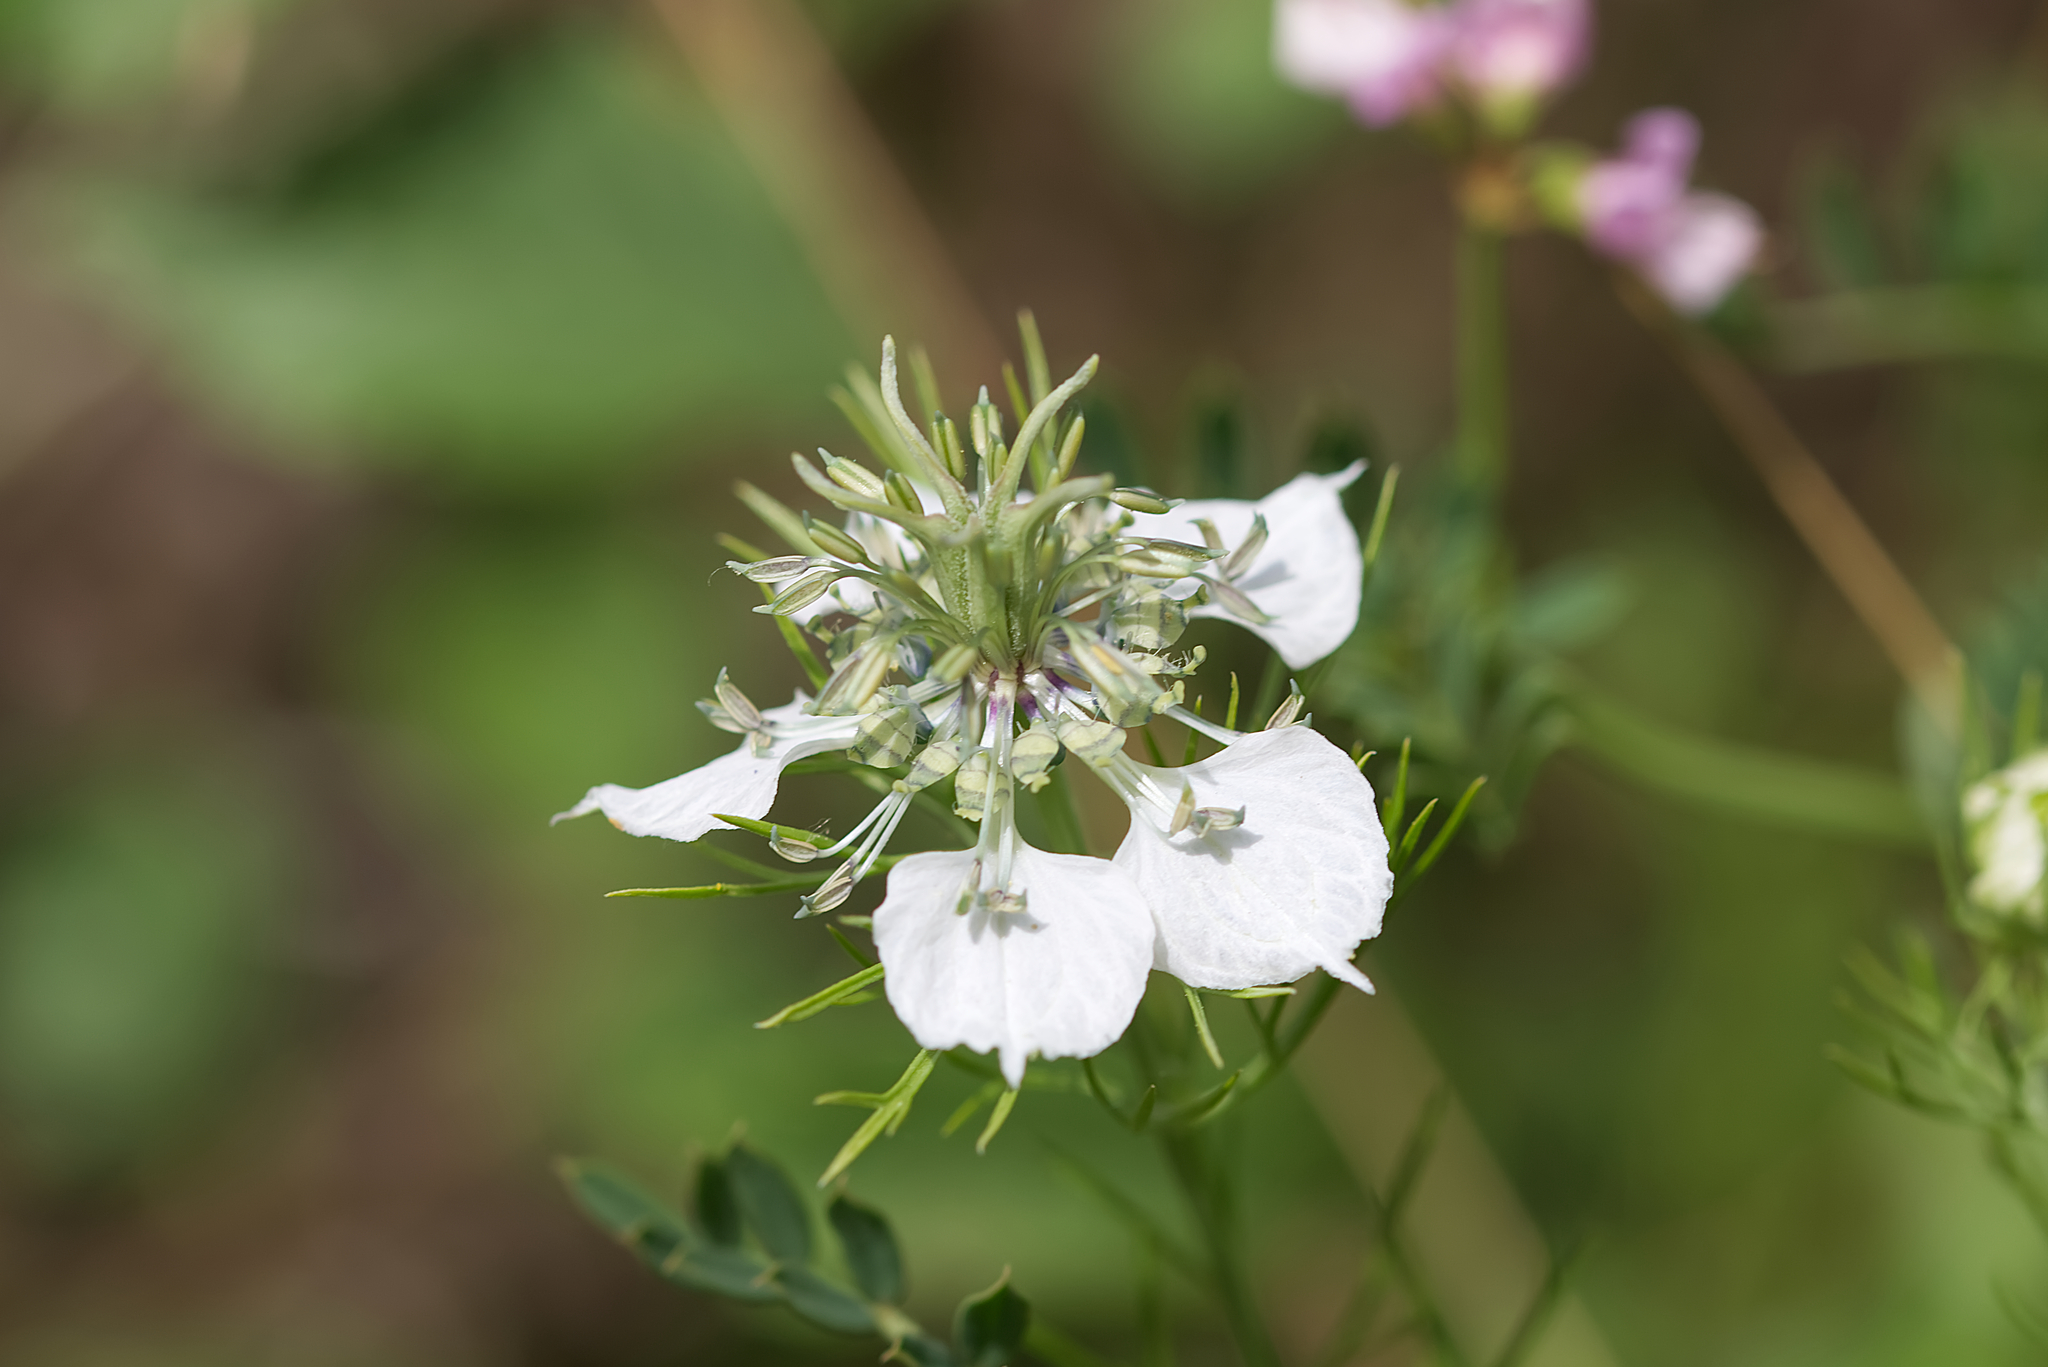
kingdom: Plantae
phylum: Tracheophyta
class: Magnoliopsida
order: Ranunculales
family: Ranunculaceae
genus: Nigella
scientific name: Nigella arvensis
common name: Wild fennel-flower
